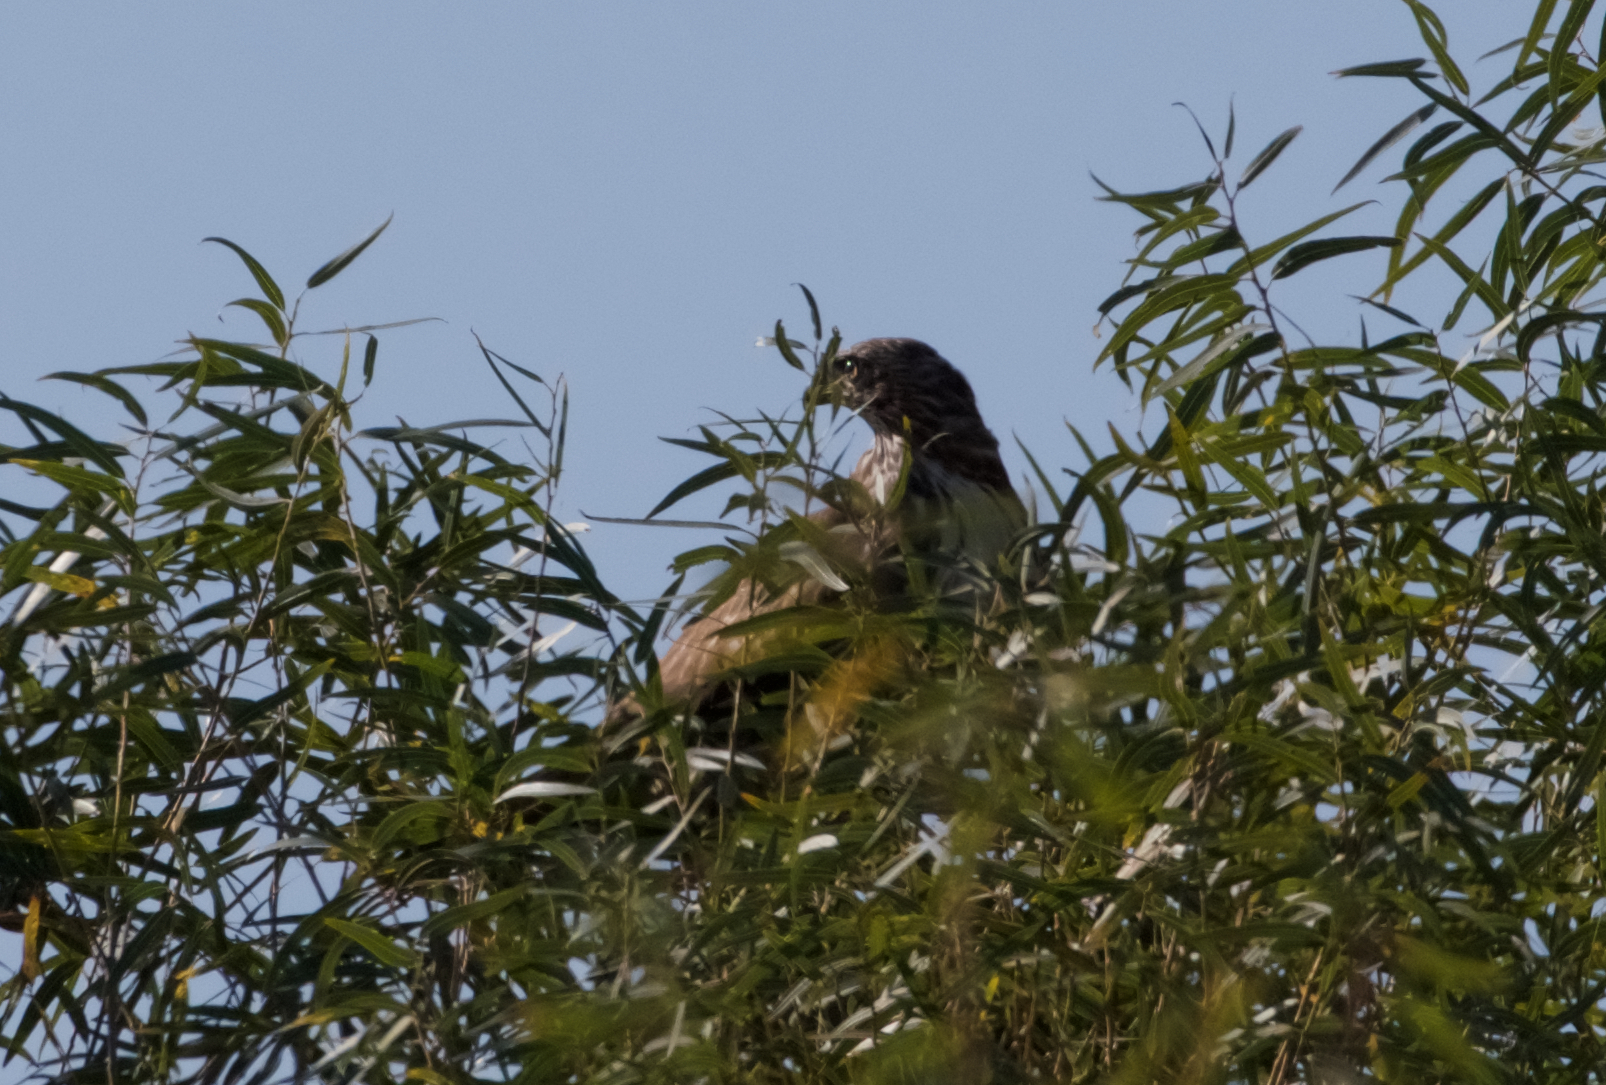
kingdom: Animalia
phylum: Chordata
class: Aves
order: Accipitriformes
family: Accipitridae
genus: Buteo
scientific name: Buteo jamaicensis
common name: Red-tailed hawk
